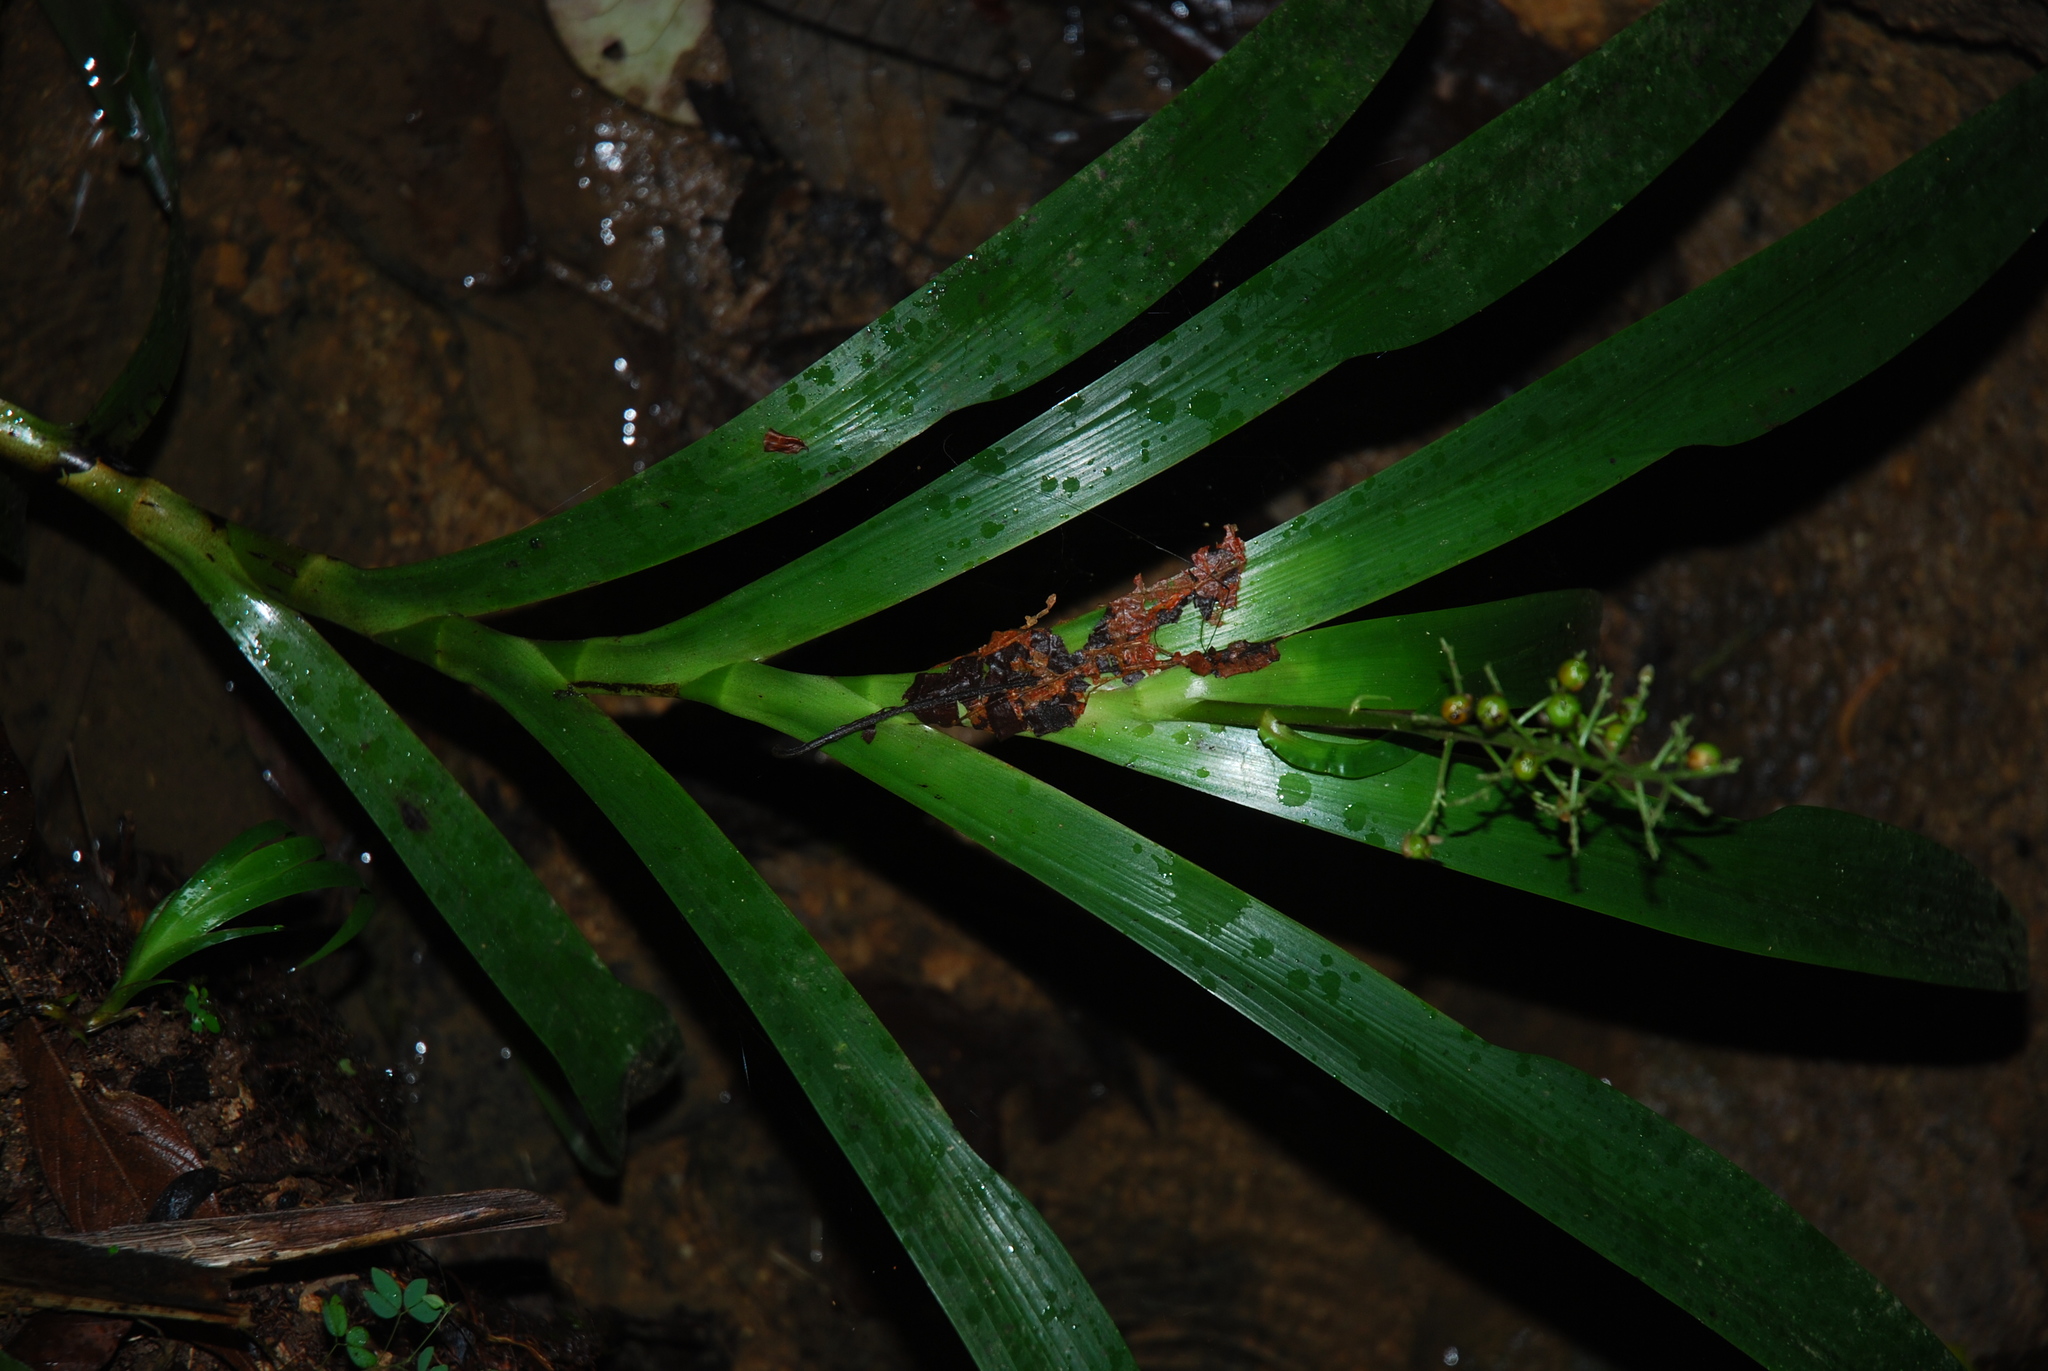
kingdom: Plantae
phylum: Tracheophyta
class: Liliopsida
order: Commelinales
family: Haemodoraceae
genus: Xiphidium
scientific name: Xiphidium caeruleum
